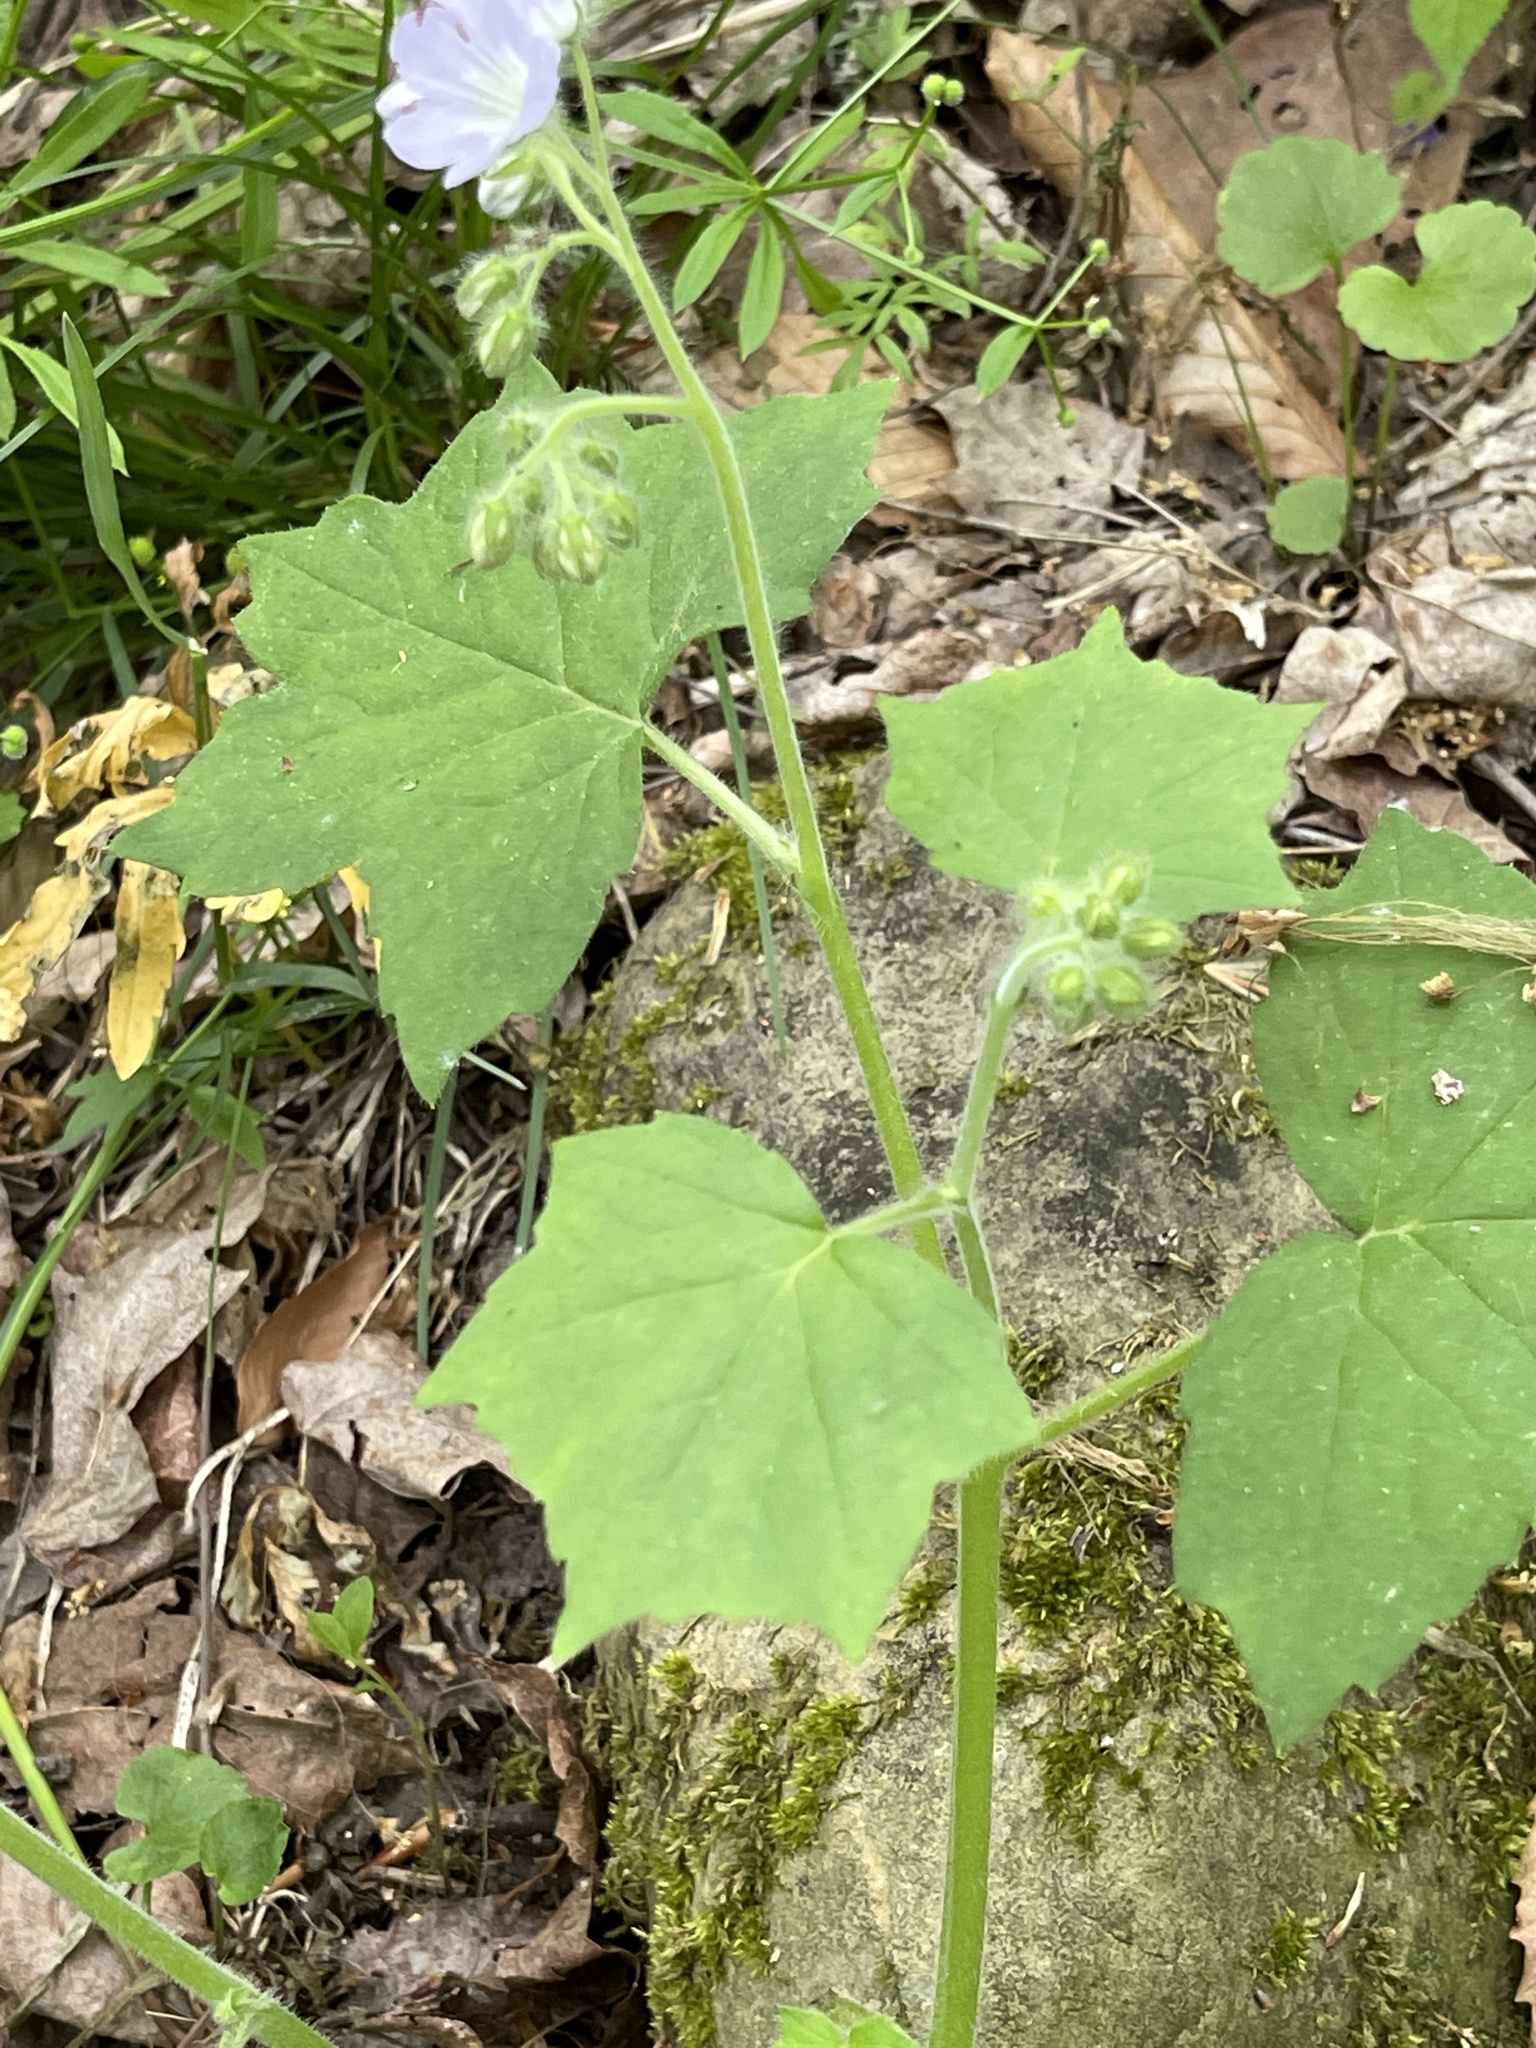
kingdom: Plantae
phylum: Tracheophyta
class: Magnoliopsida
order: Boraginales
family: Hydrophyllaceae
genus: Hydrophyllum
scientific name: Hydrophyllum canadense
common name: Canada waterleaf
